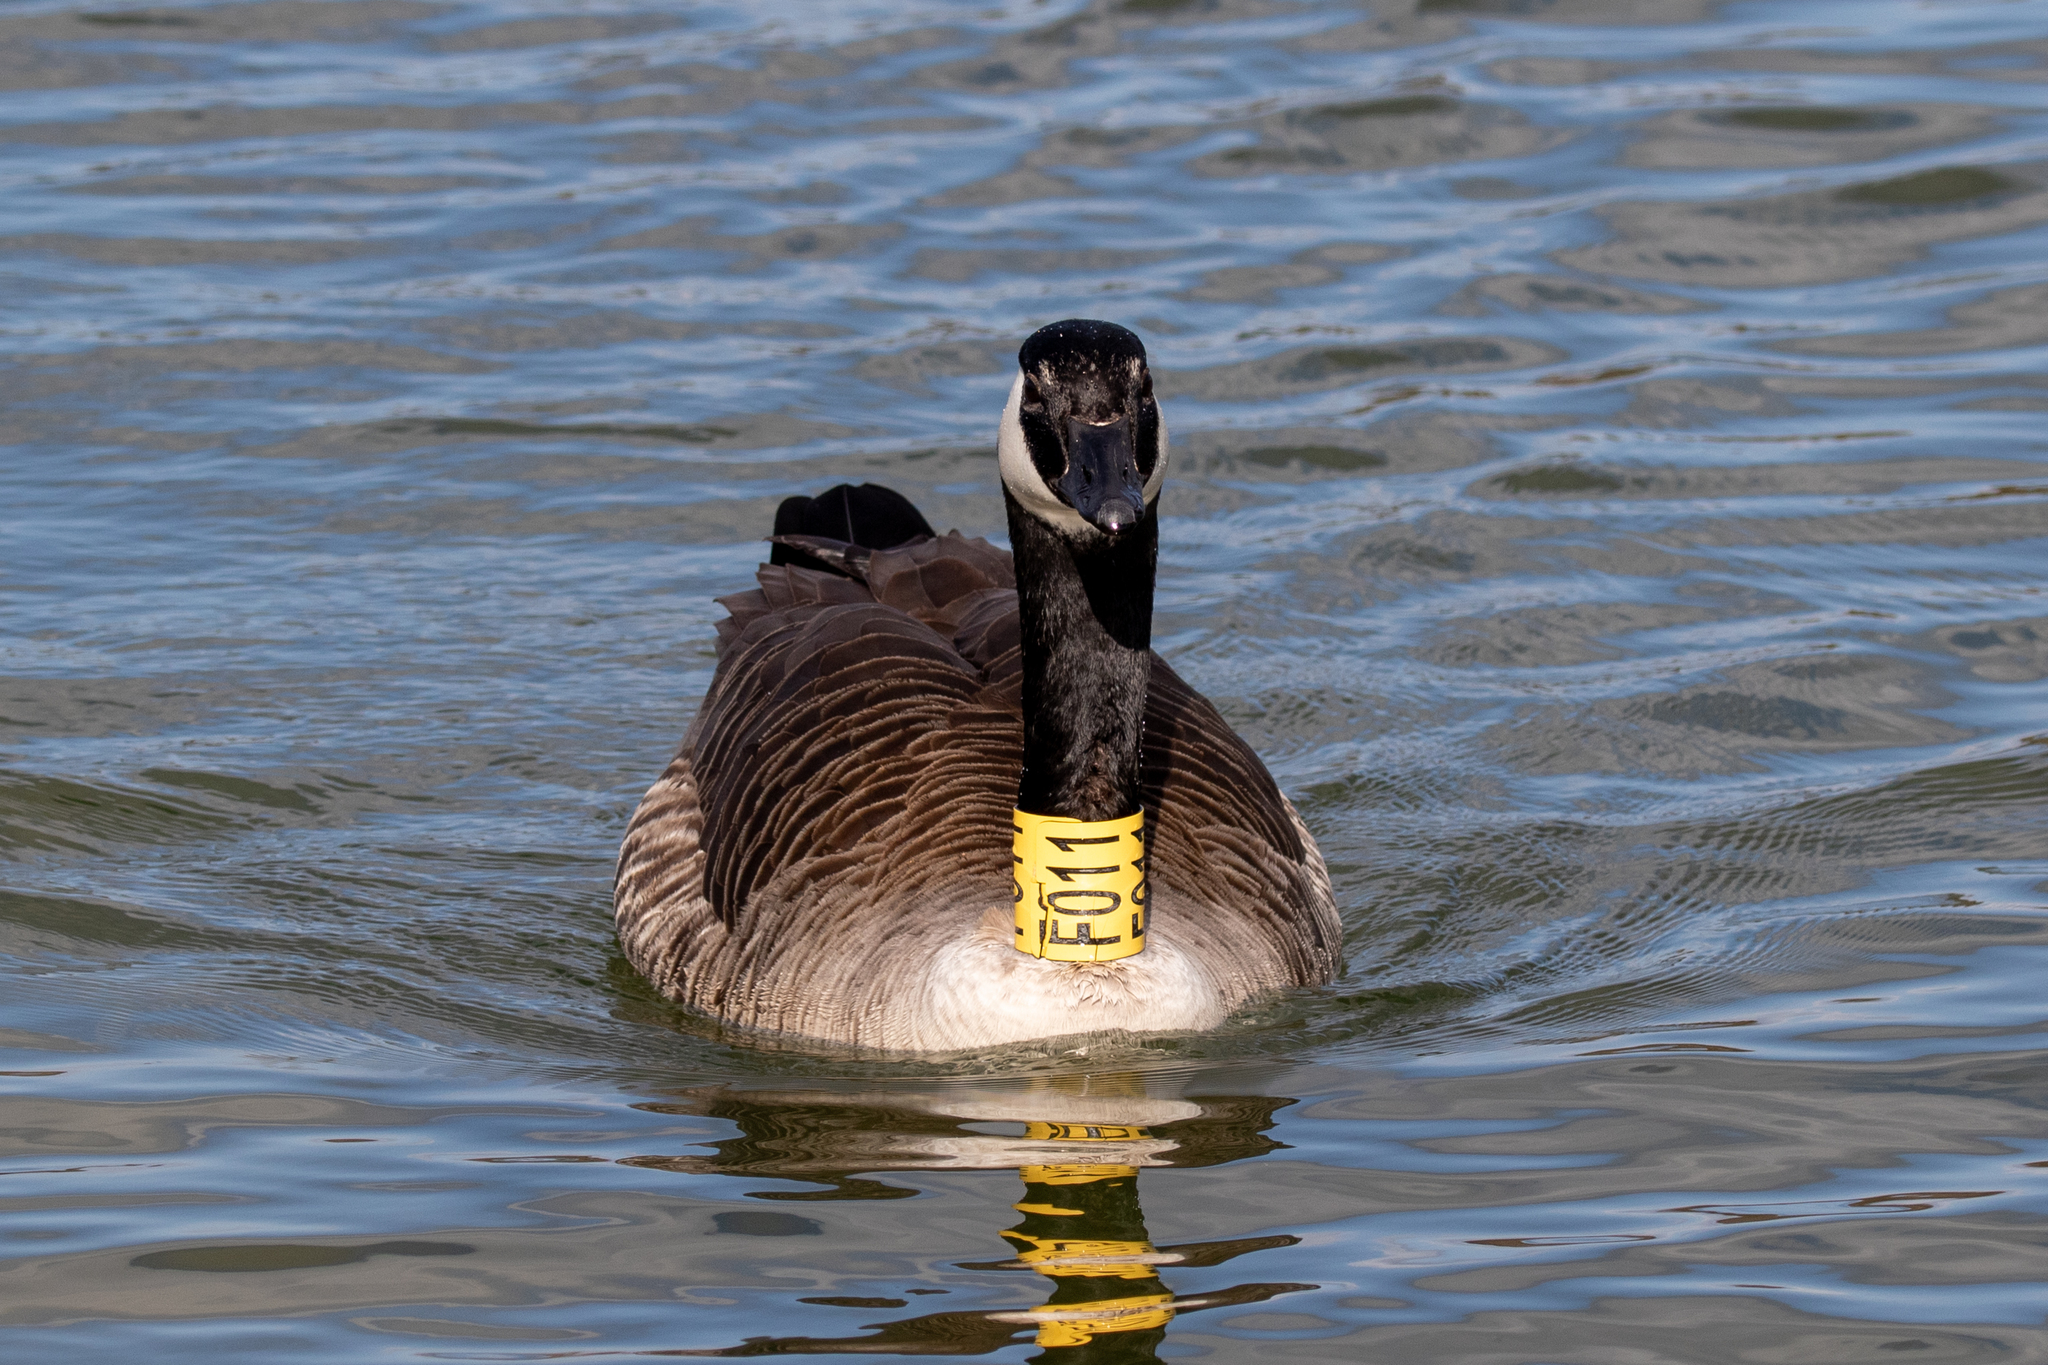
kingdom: Animalia
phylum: Chordata
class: Aves
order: Anseriformes
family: Anatidae
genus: Branta
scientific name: Branta canadensis
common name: Canada goose
